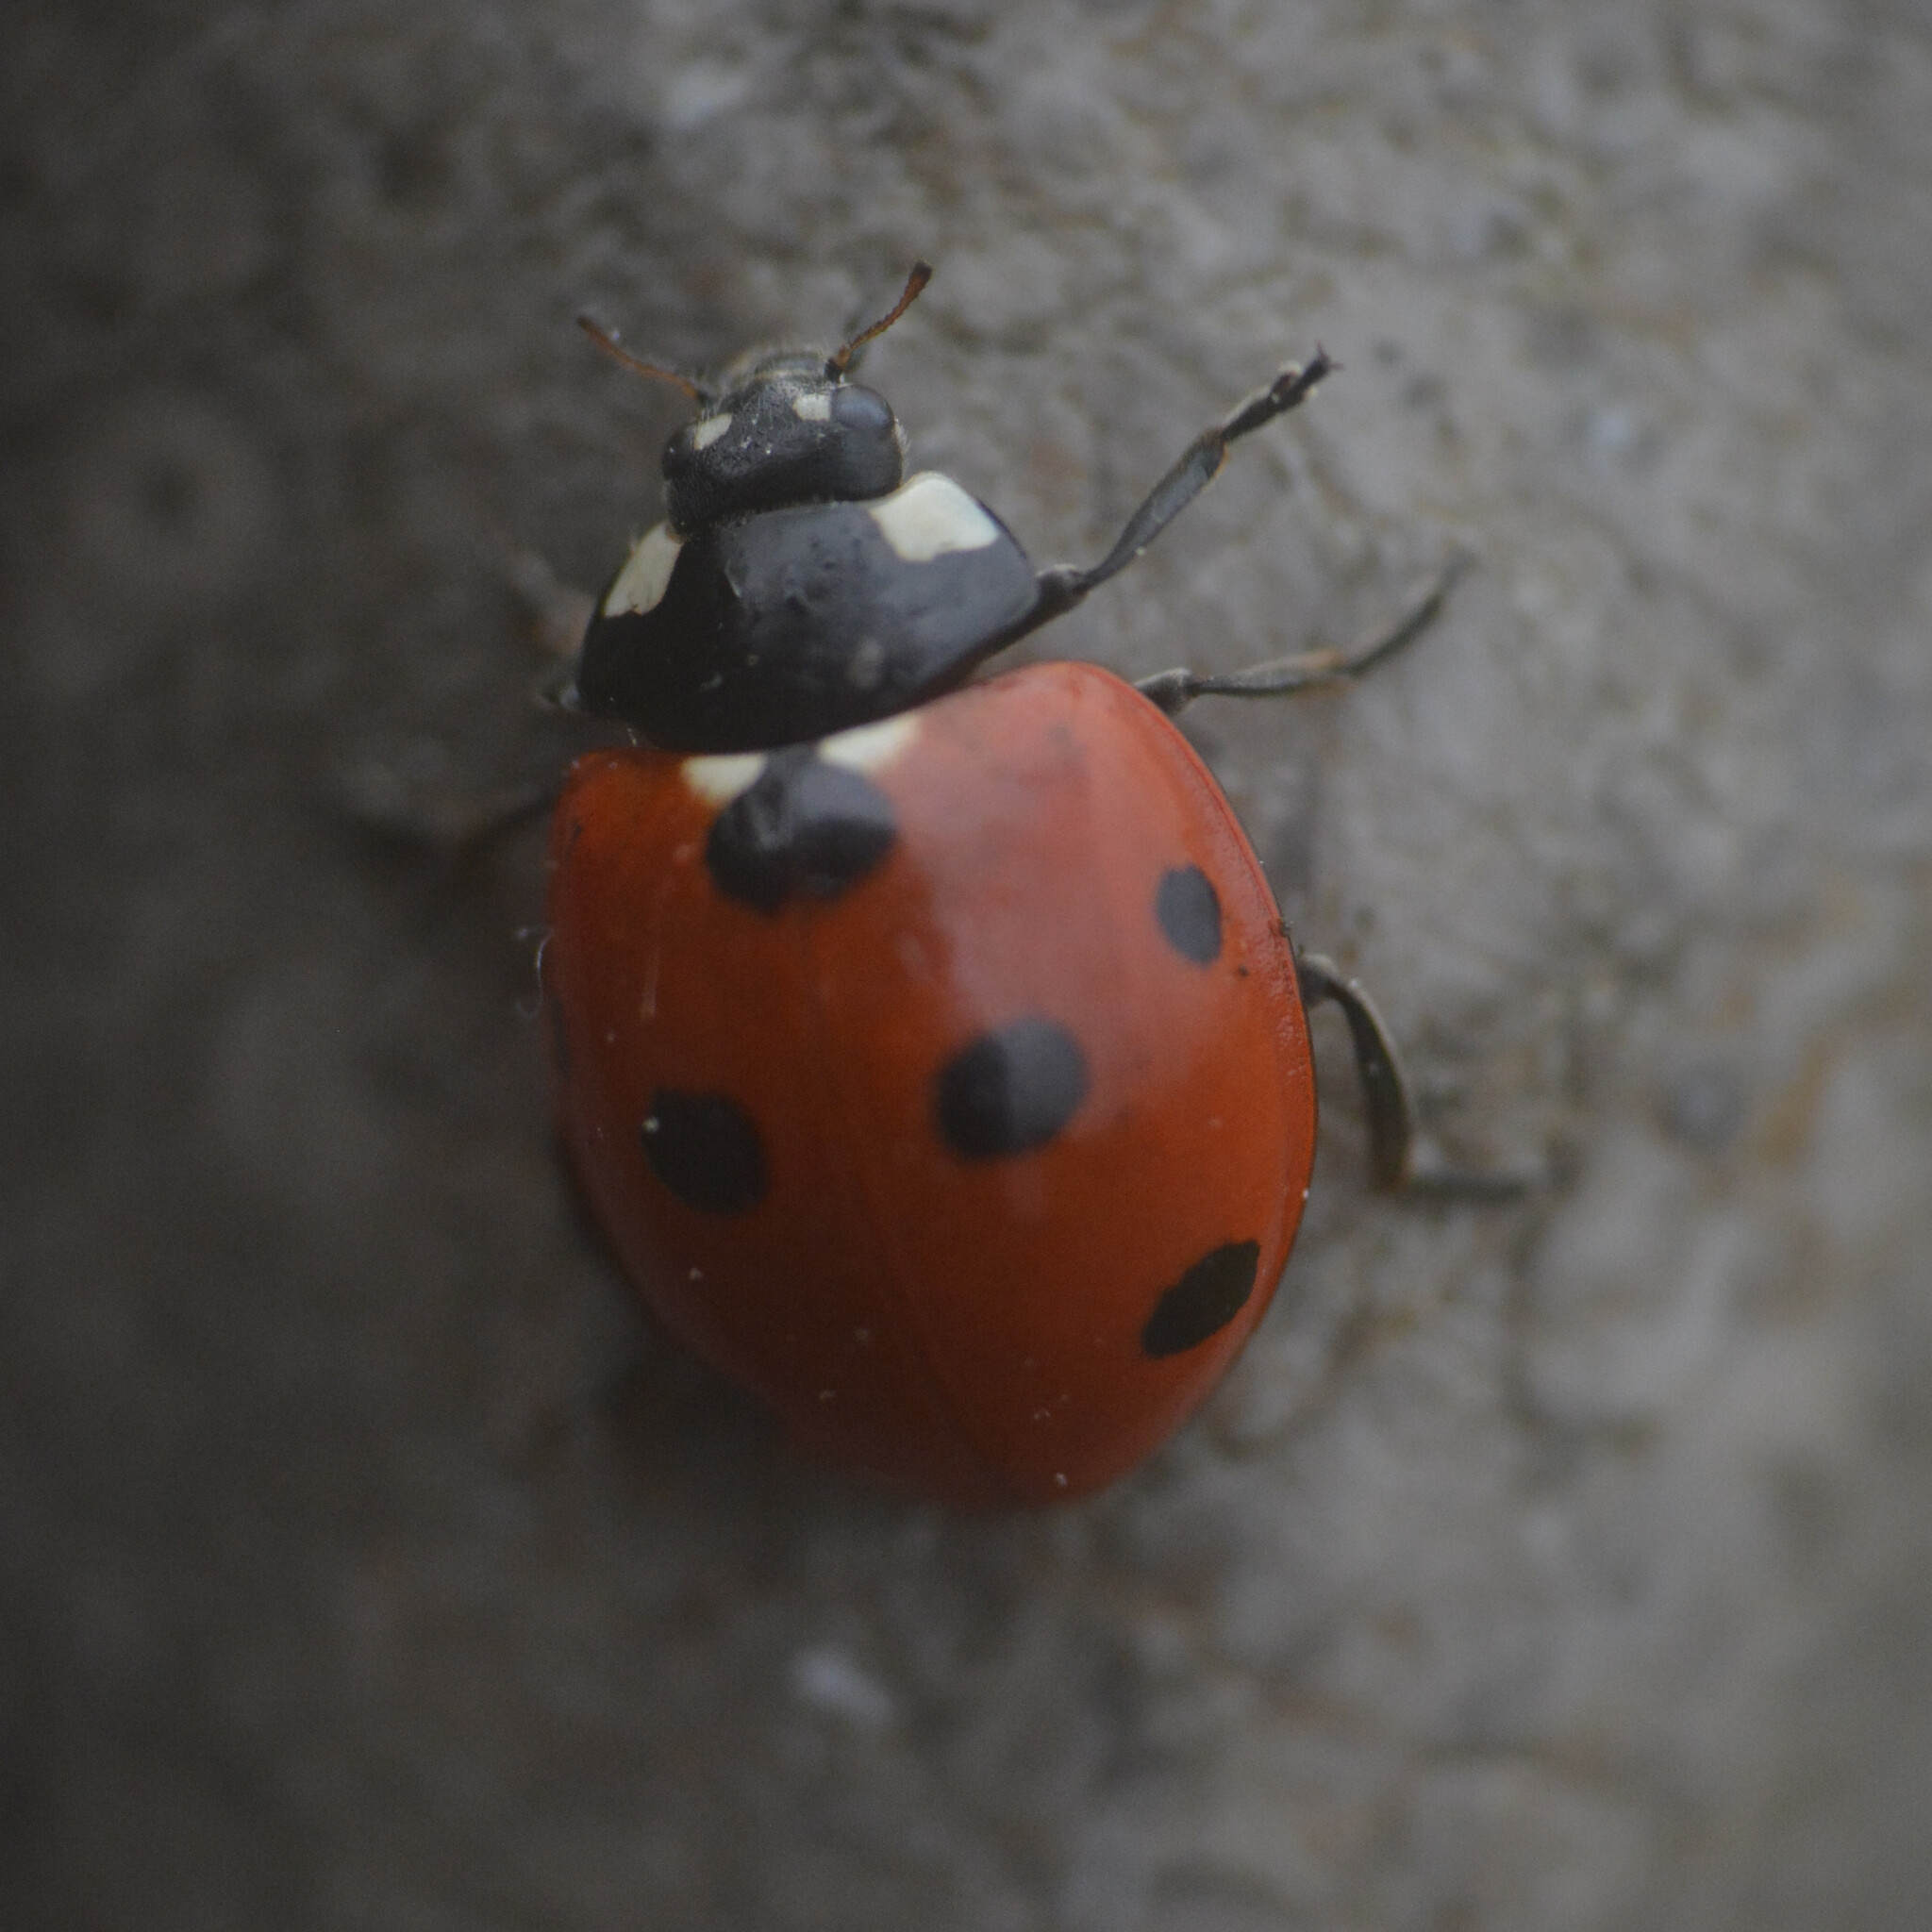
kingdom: Animalia
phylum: Arthropoda
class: Insecta
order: Coleoptera
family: Coccinellidae
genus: Coccinella
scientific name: Coccinella septempunctata
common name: Sevenspotted lady beetle
